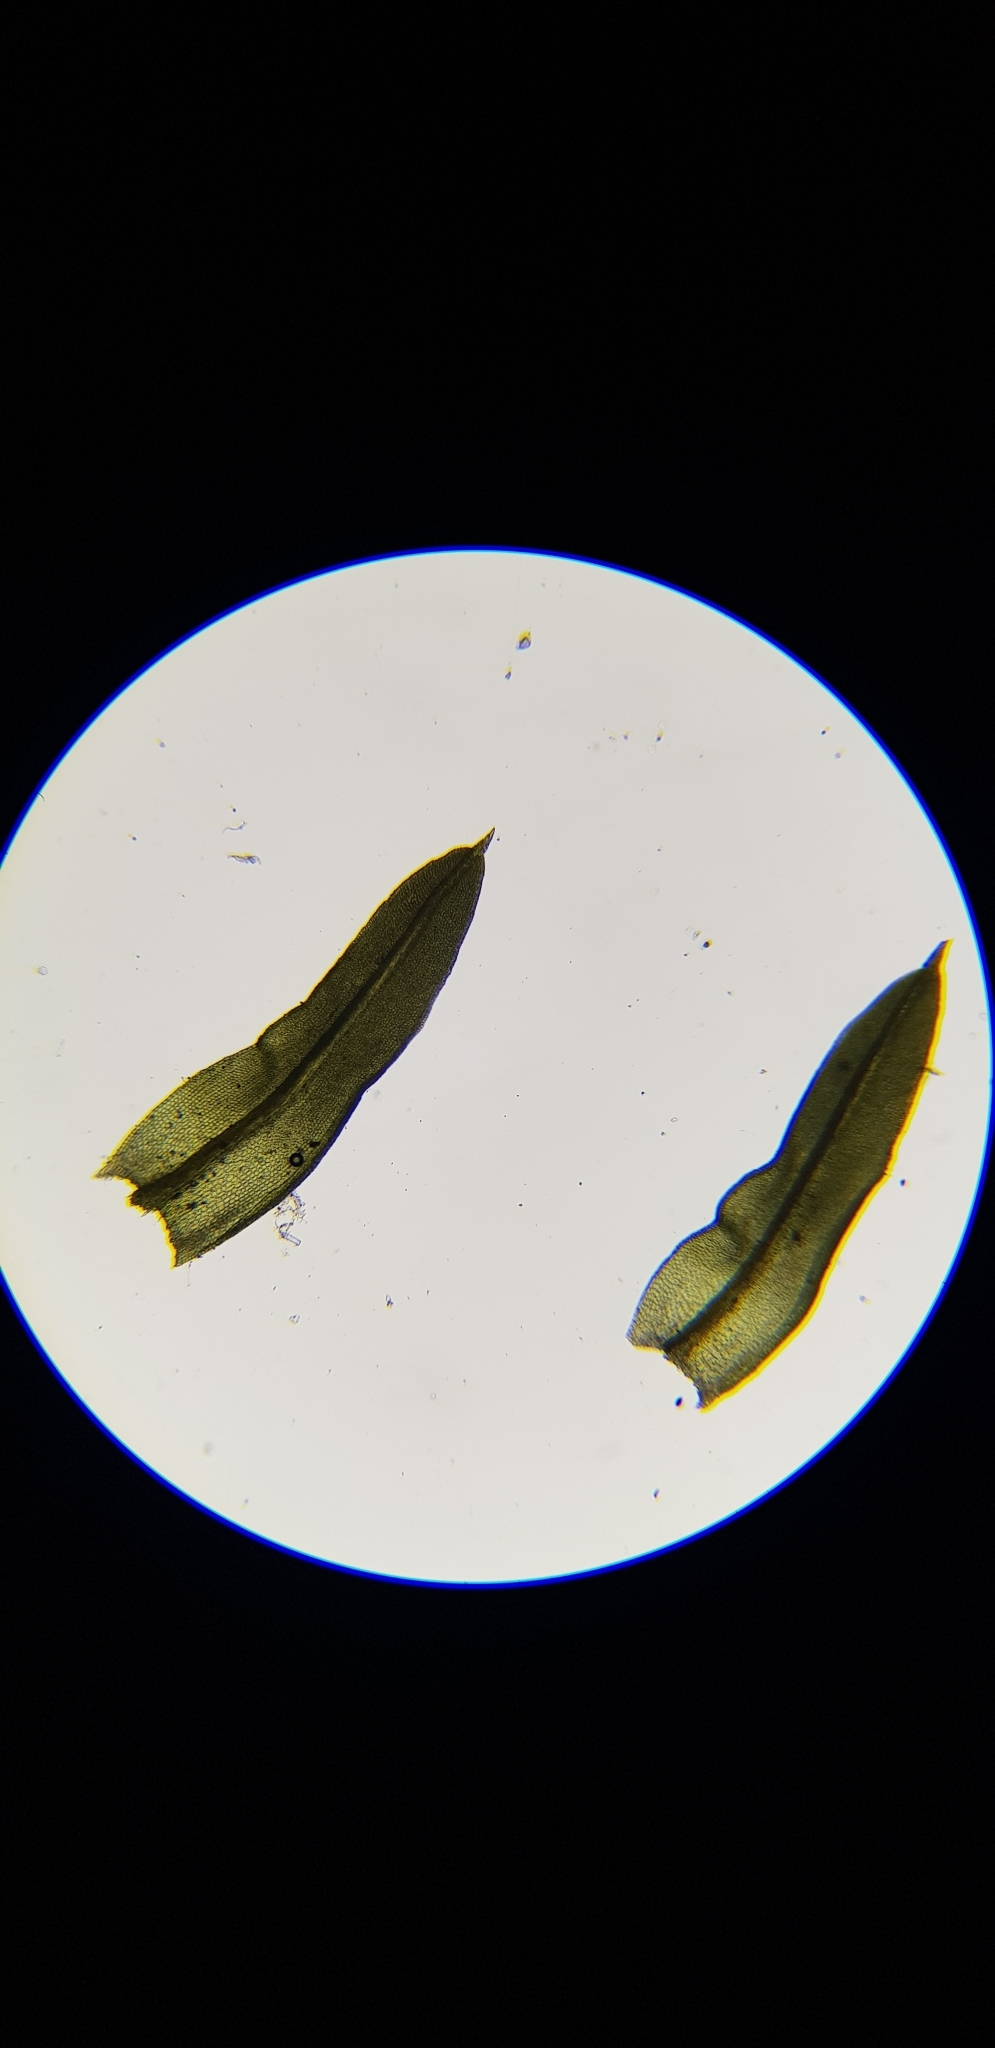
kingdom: Plantae
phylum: Bryophyta
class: Bryopsida
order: Pottiales
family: Pottiaceae
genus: Barbula
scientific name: Barbula unguiculata
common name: Prickly beard moss
